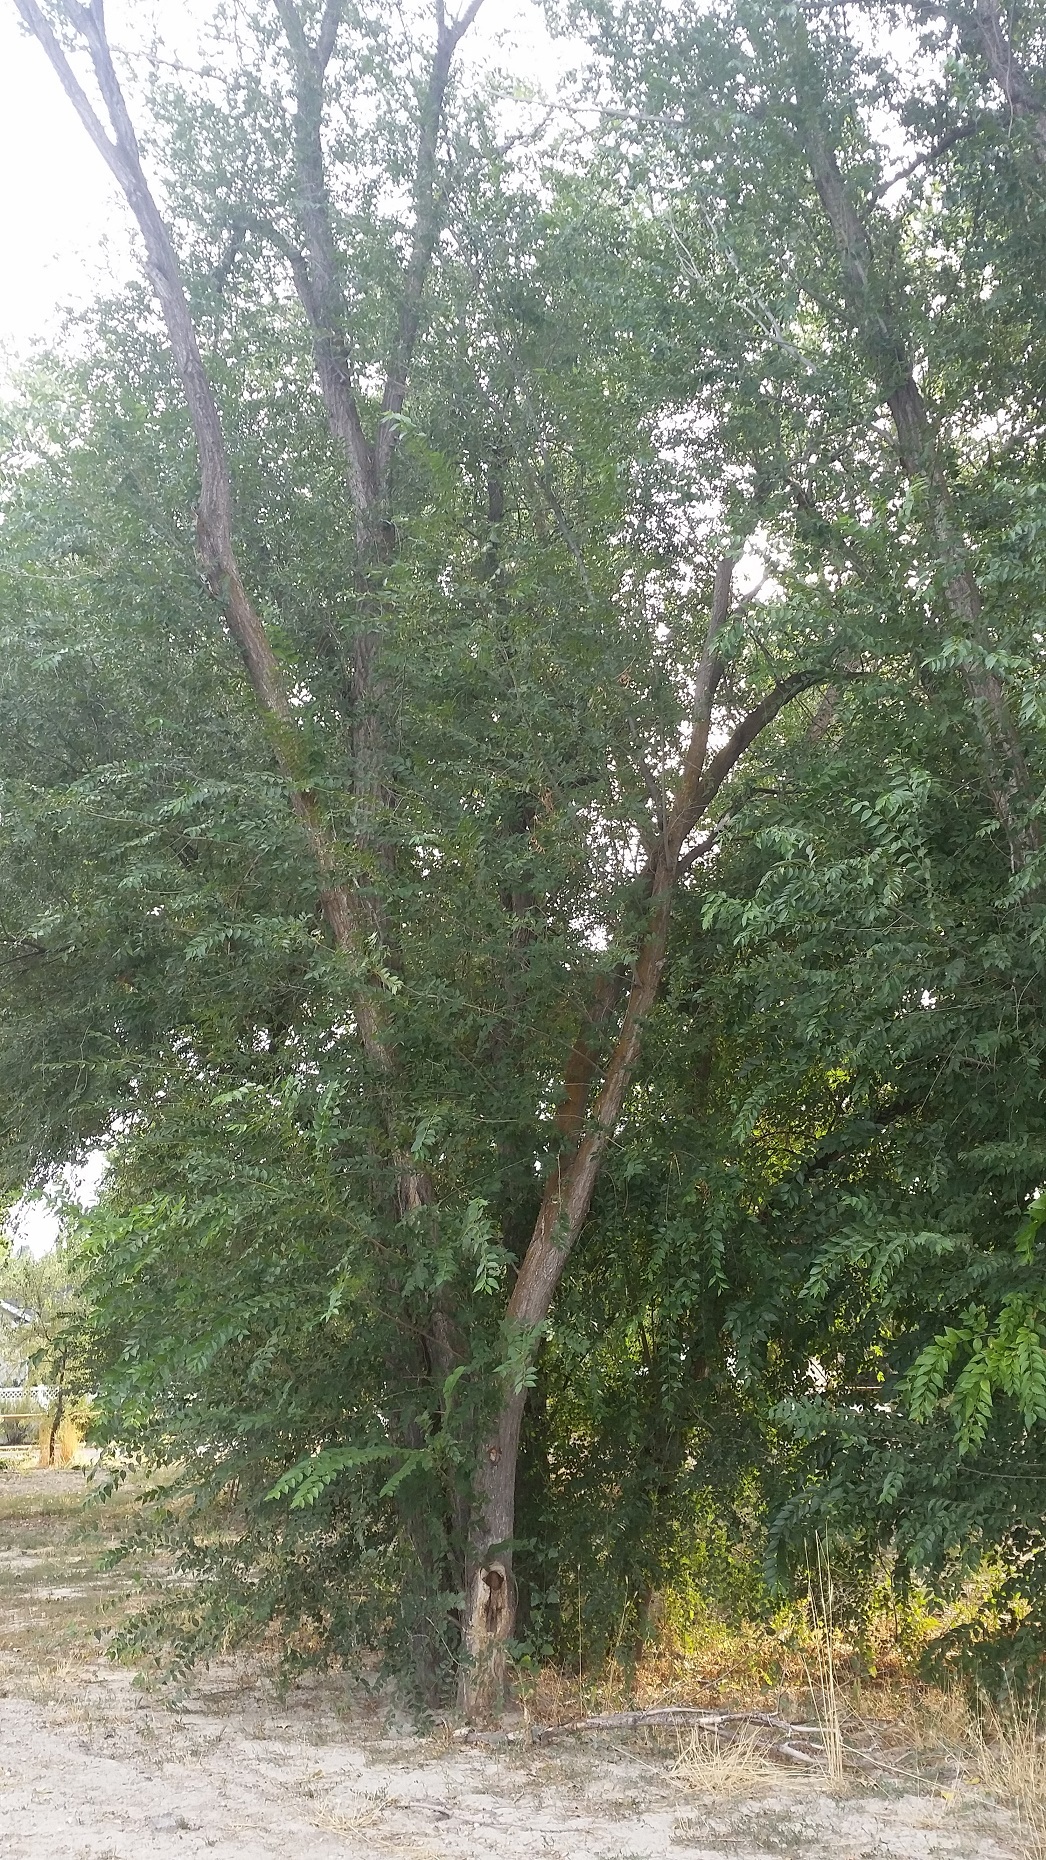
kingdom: Plantae
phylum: Tracheophyta
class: Magnoliopsida
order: Rosales
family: Ulmaceae
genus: Ulmus
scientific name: Ulmus pumila
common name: Siberian elm
